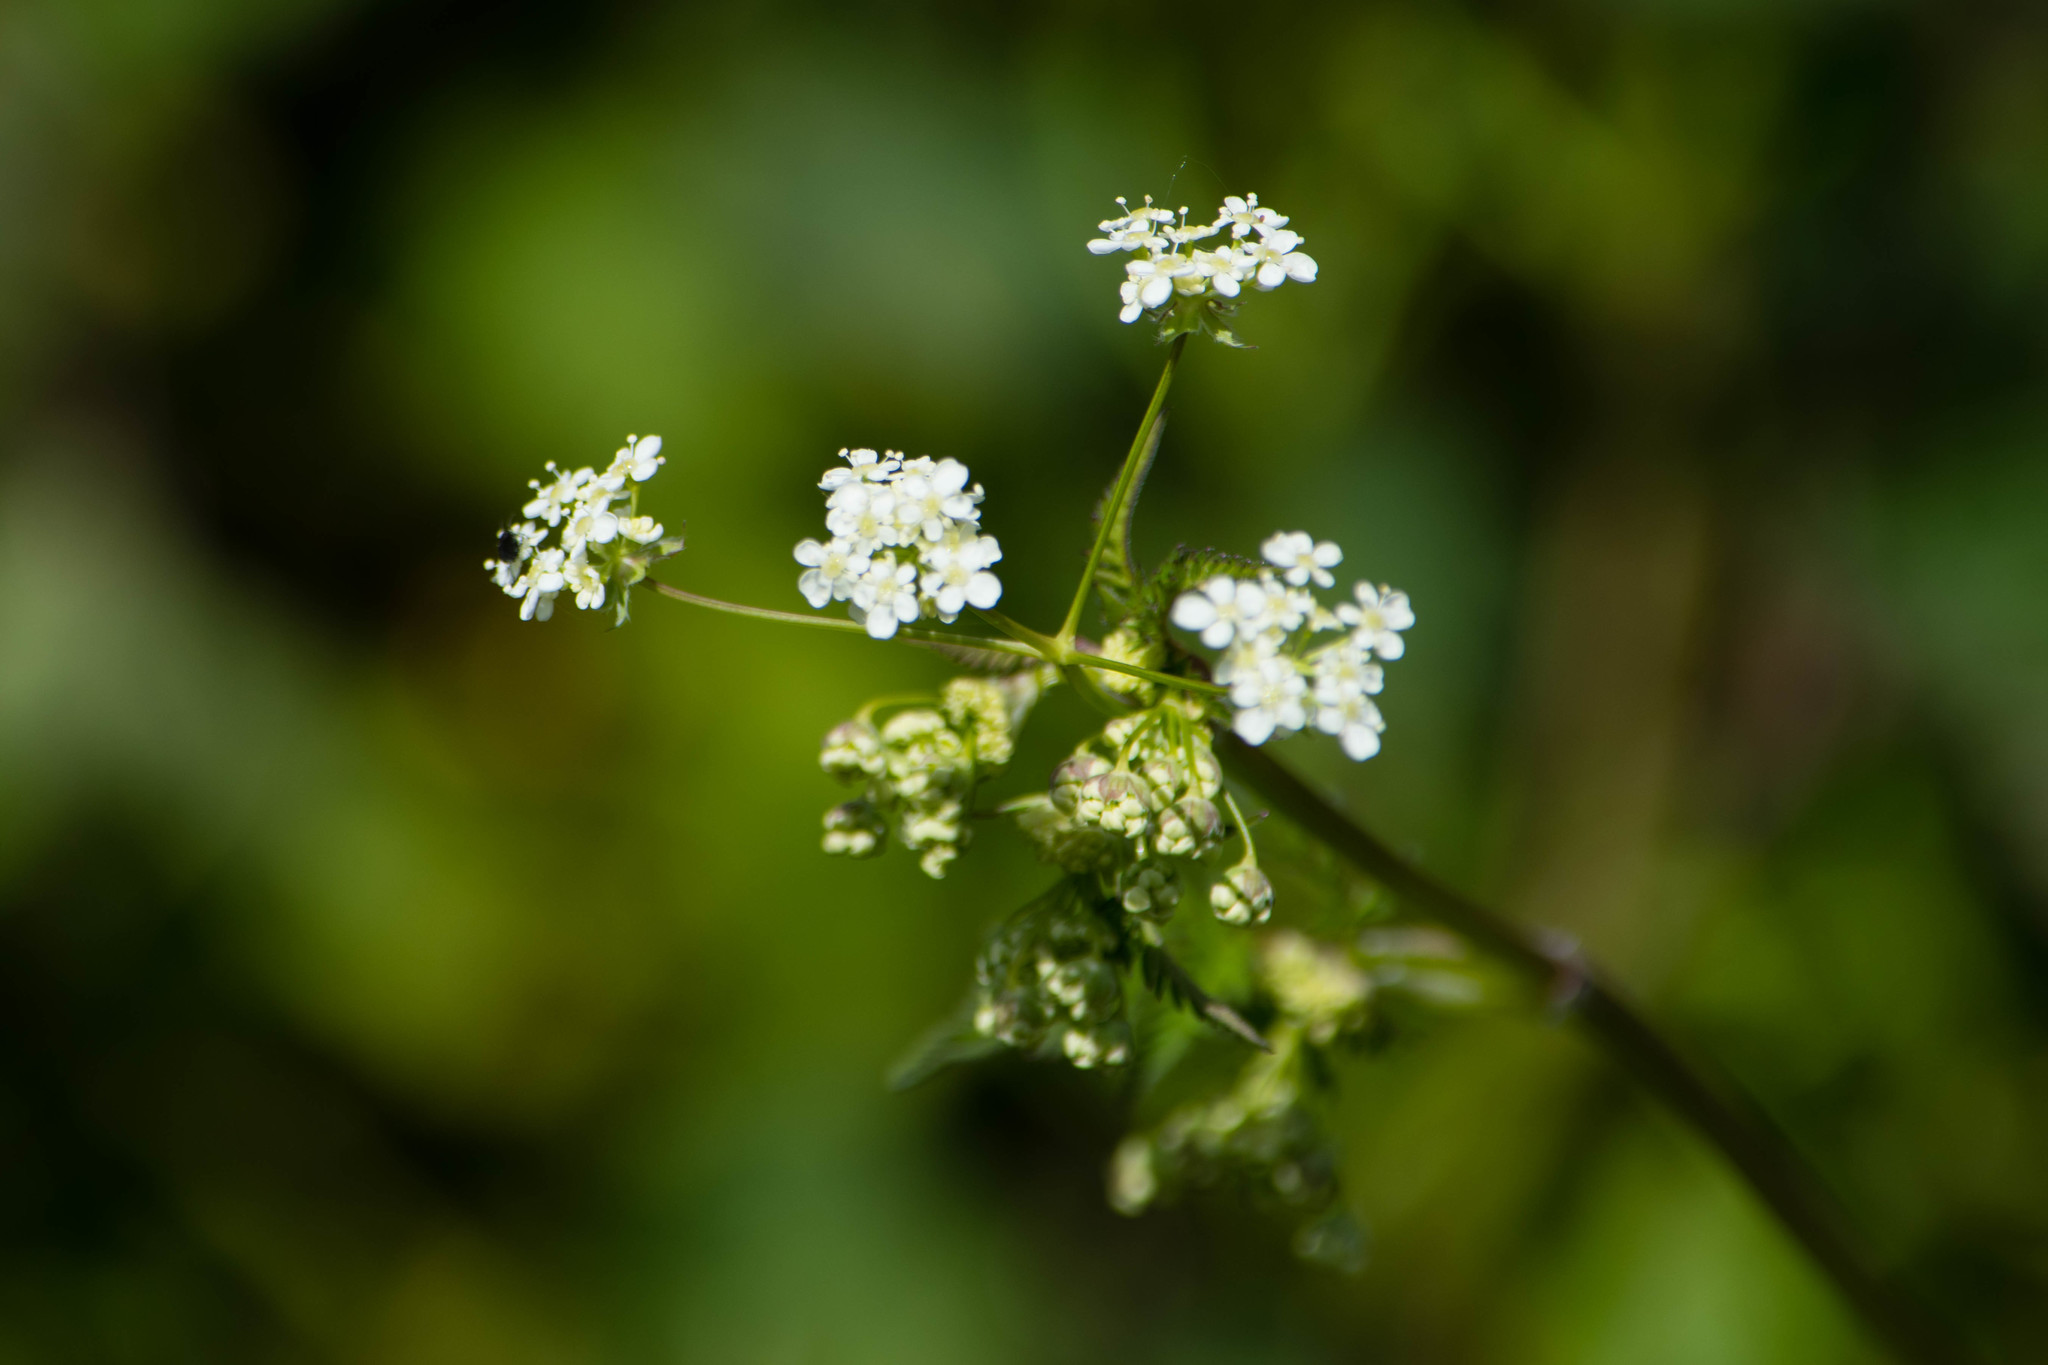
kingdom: Plantae
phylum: Tracheophyta
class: Magnoliopsida
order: Apiales
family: Apiaceae
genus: Anthriscus
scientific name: Anthriscus sylvestris
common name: Cow parsley
